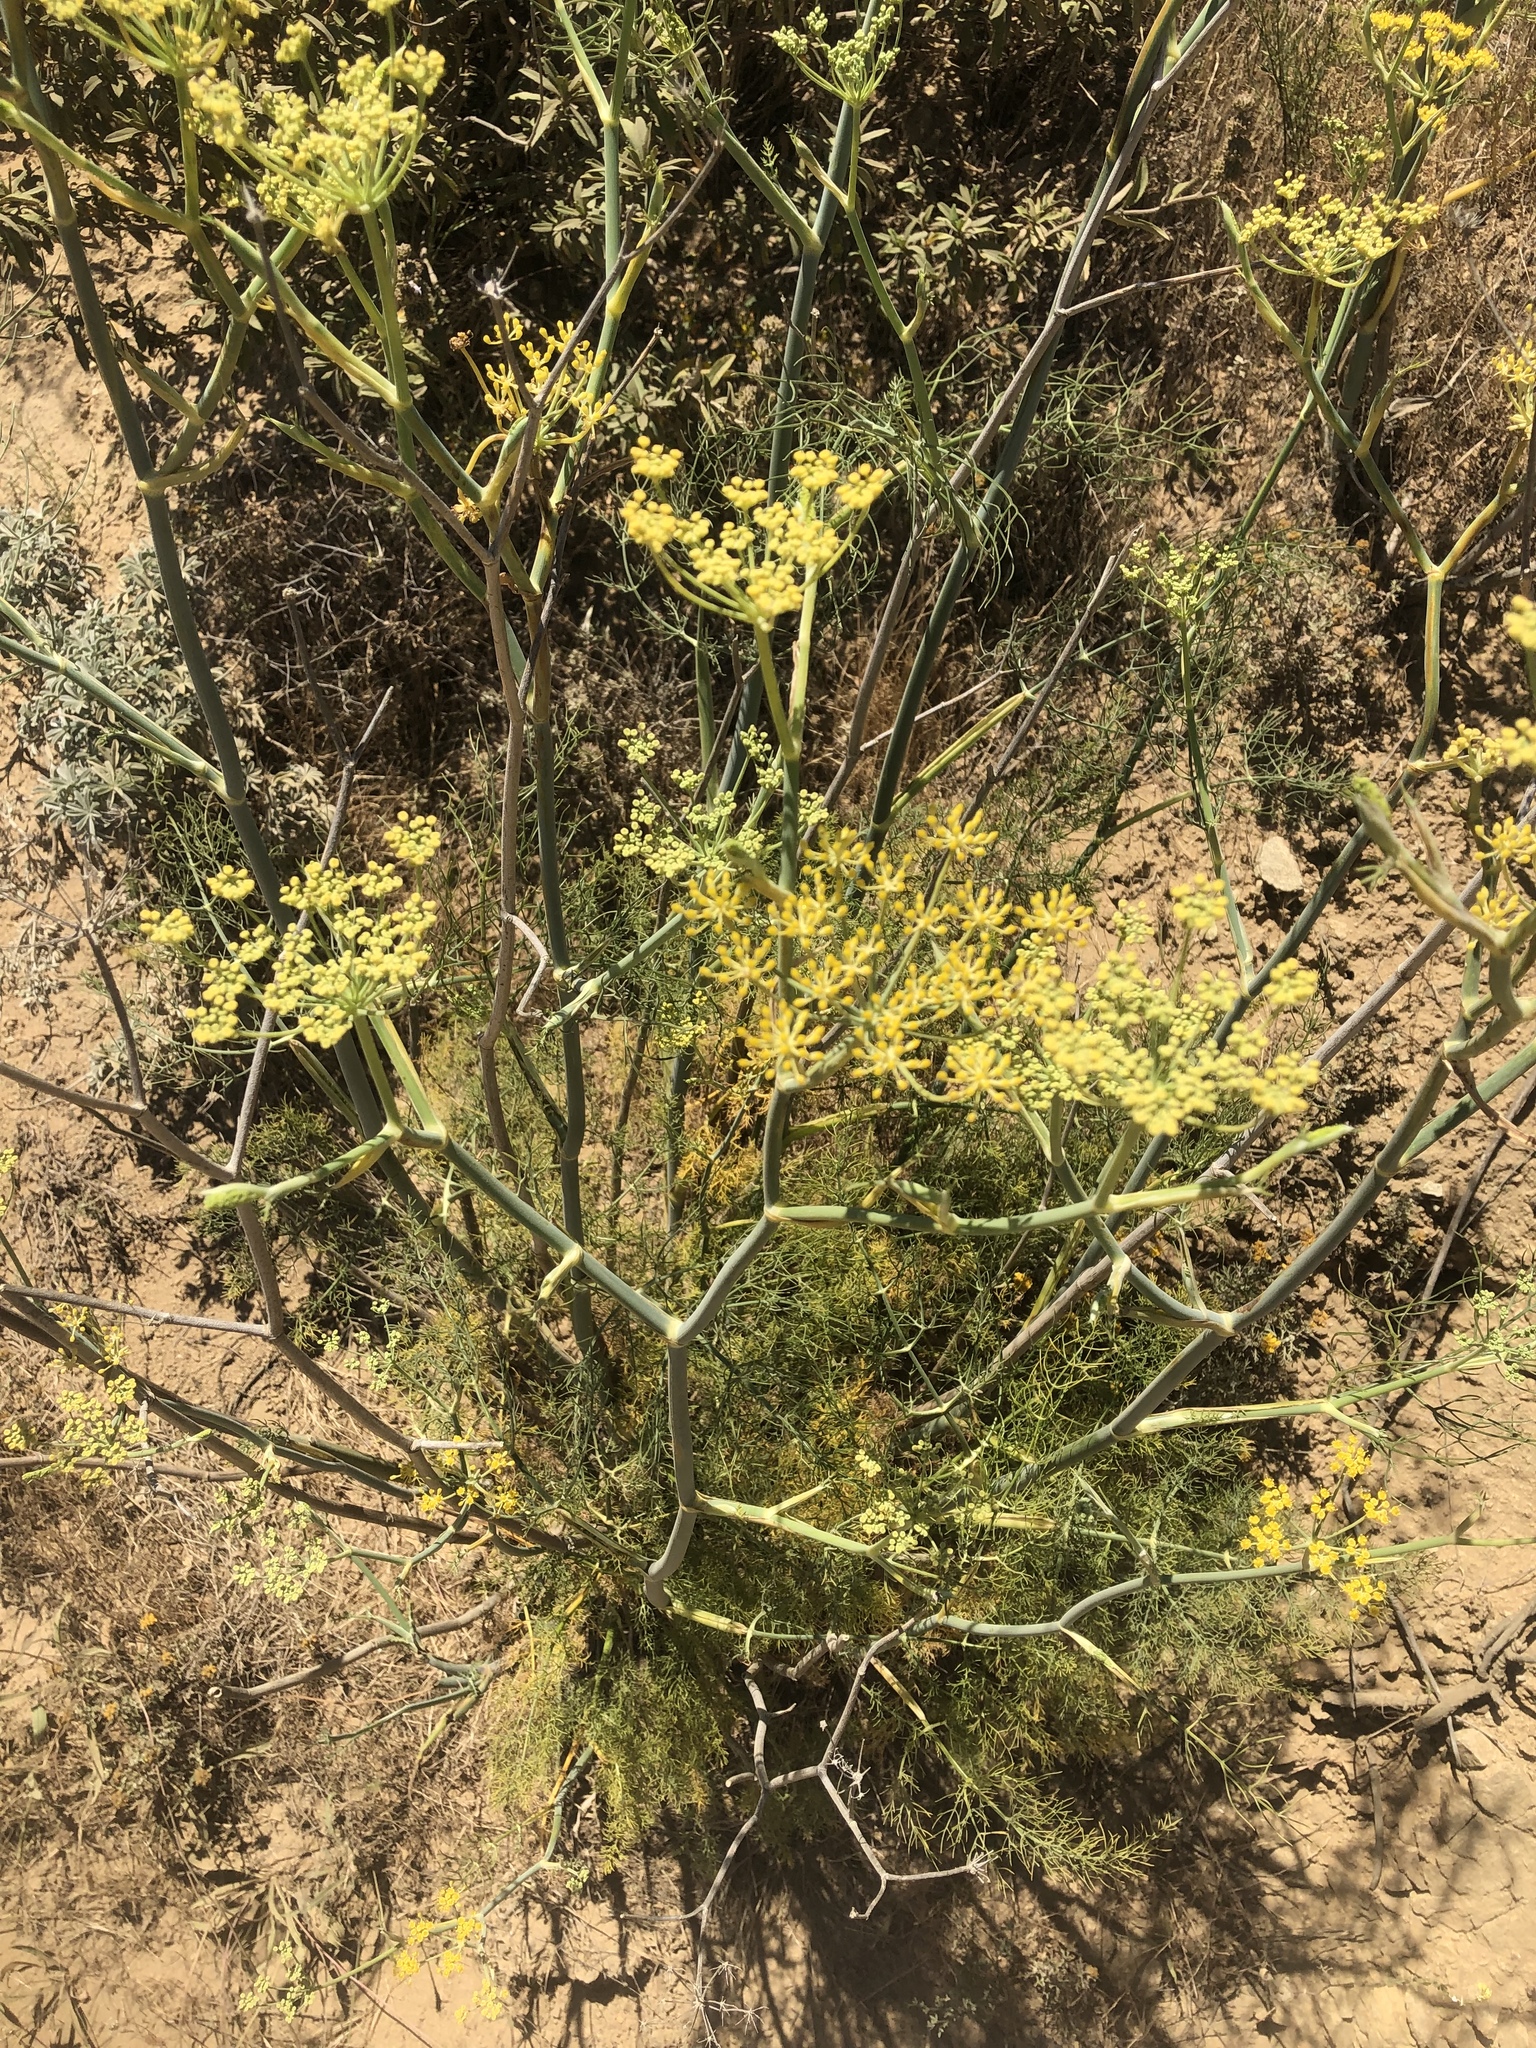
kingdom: Plantae
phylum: Tracheophyta
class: Magnoliopsida
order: Apiales
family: Apiaceae
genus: Foeniculum
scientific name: Foeniculum vulgare
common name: Fennel
